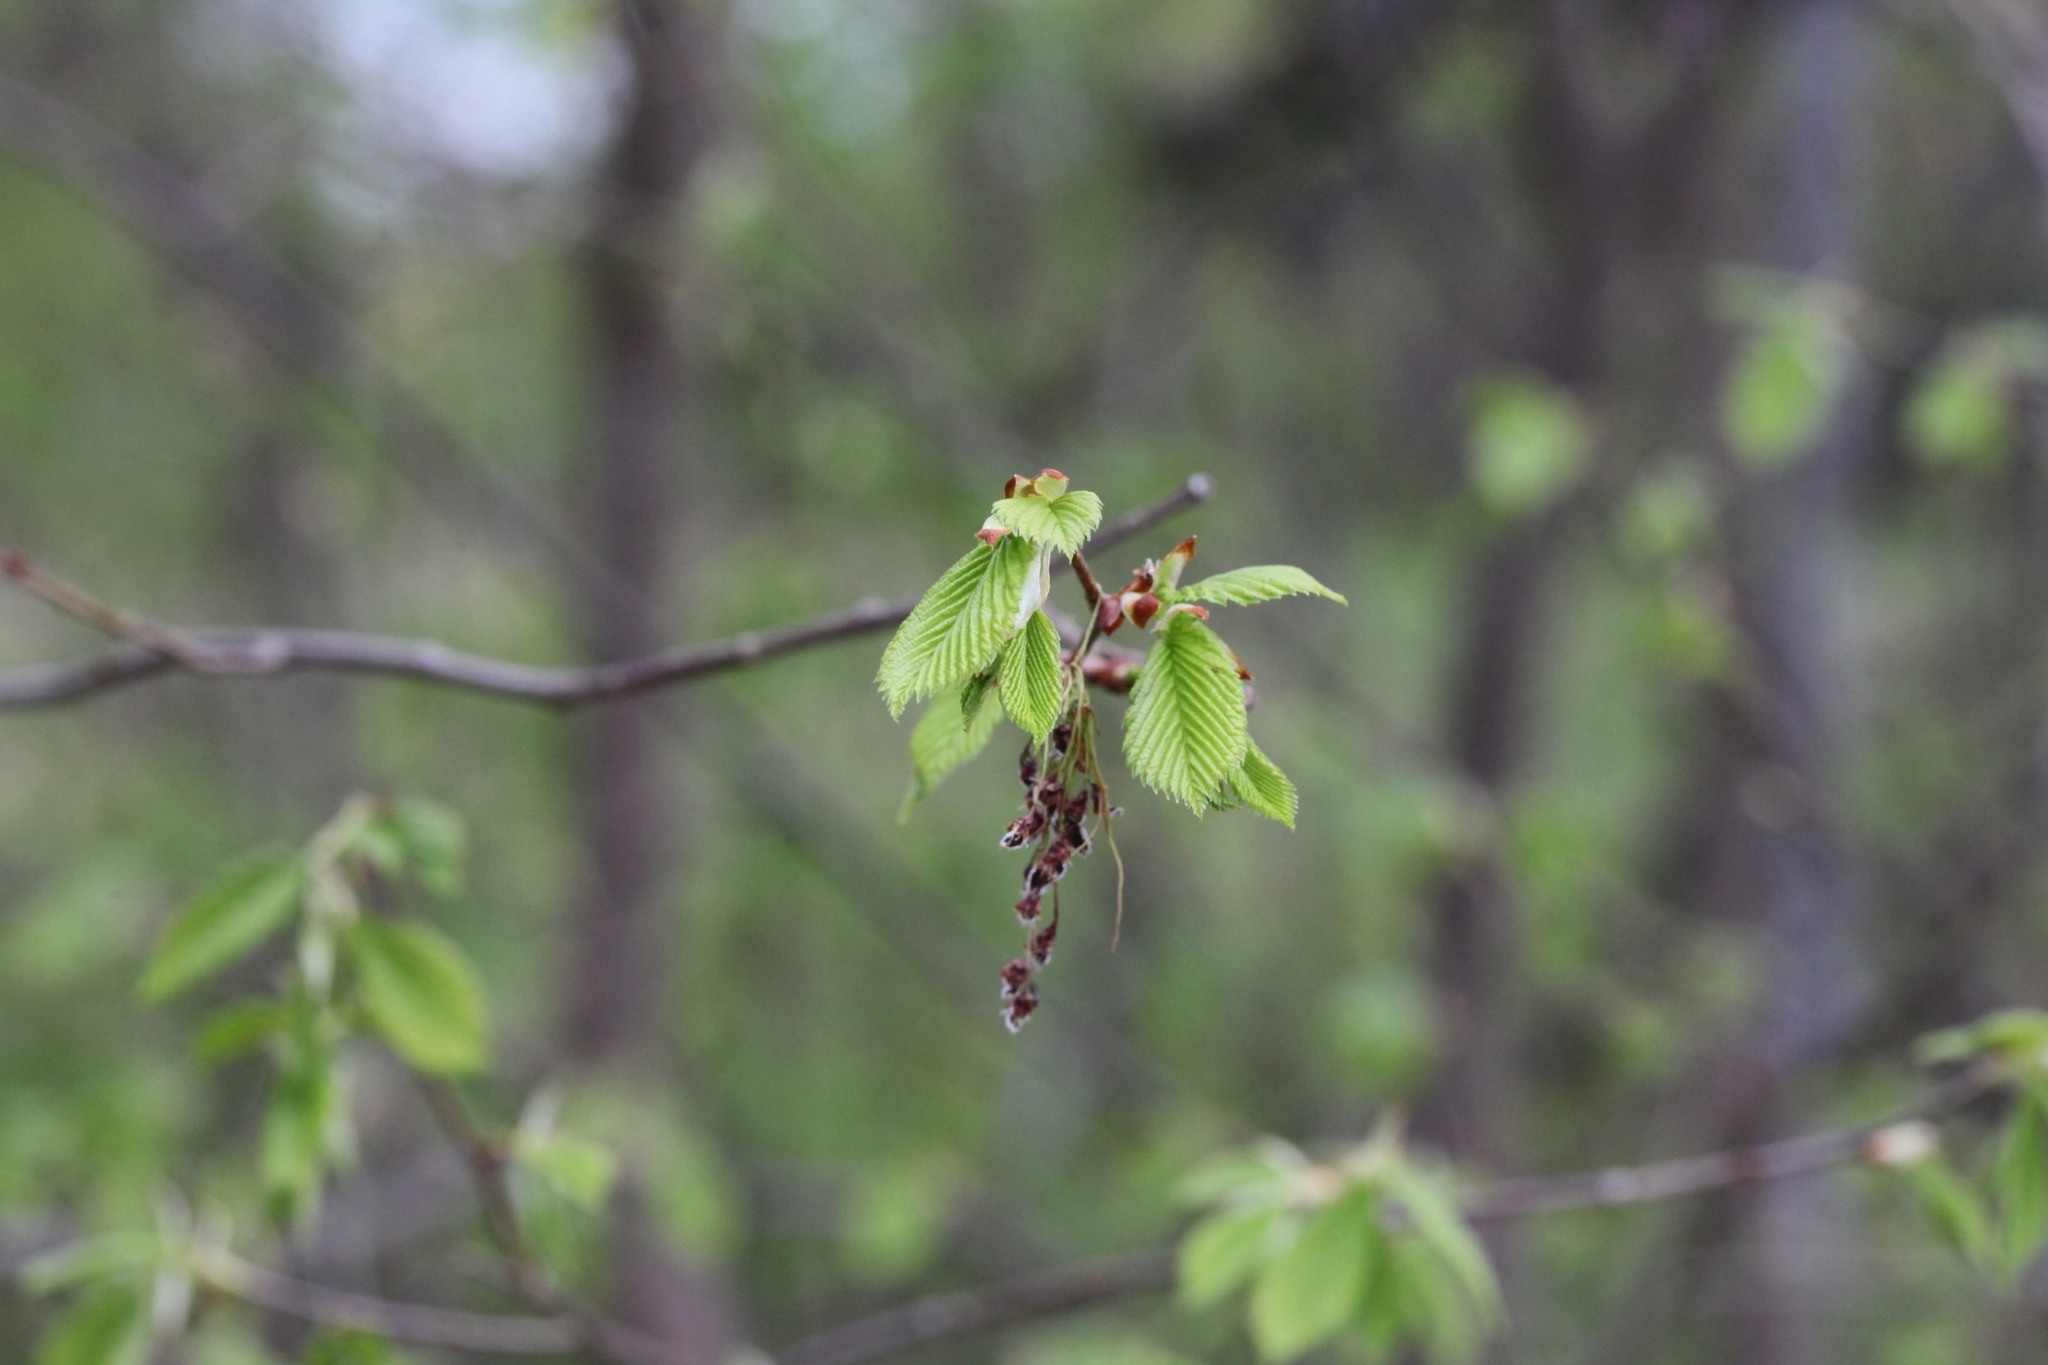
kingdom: Plantae
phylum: Tracheophyta
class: Magnoliopsida
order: Rosales
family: Ulmaceae
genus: Ulmus
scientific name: Ulmus laevis
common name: European white-elm
